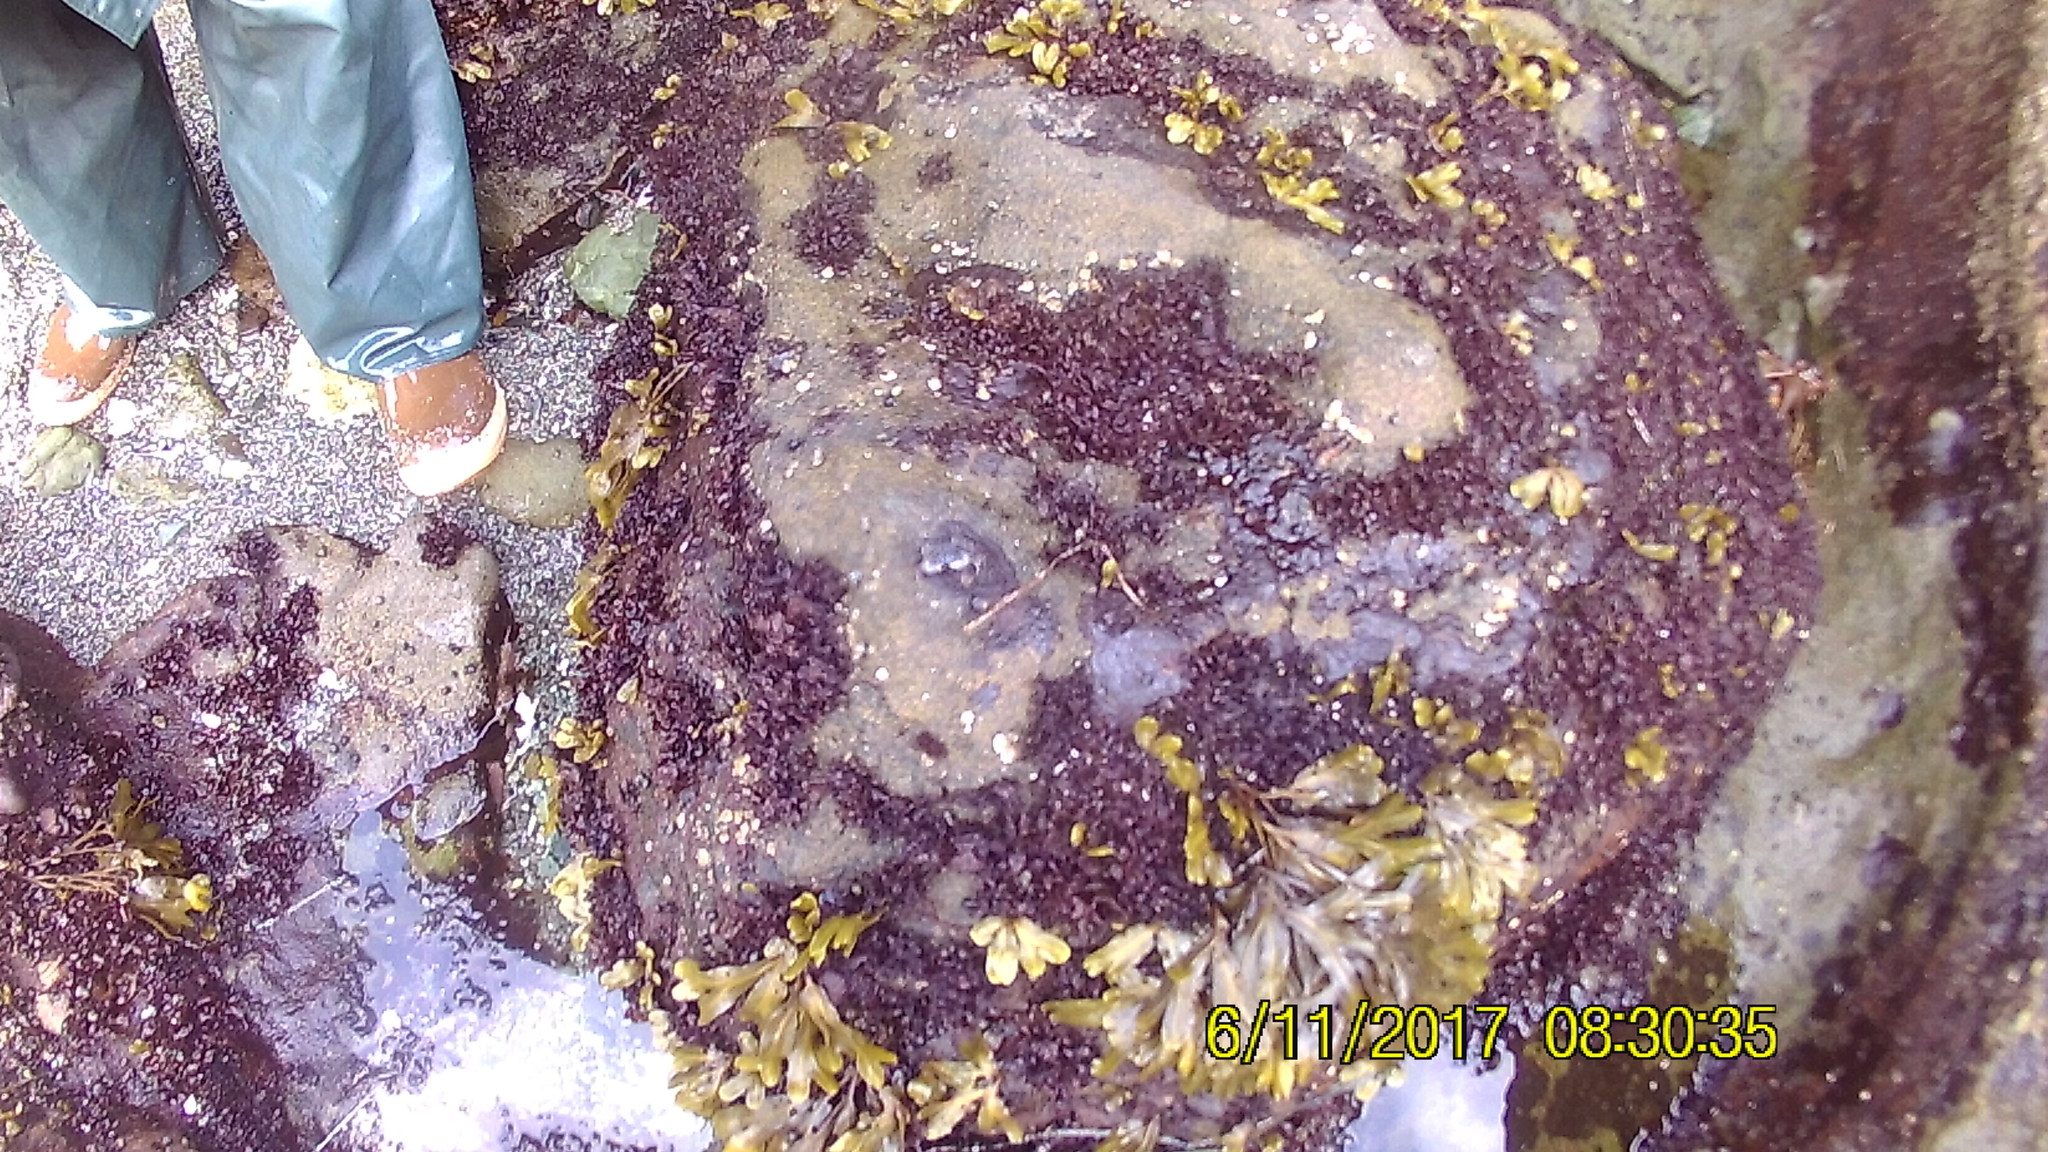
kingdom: Chromista
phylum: Ochrophyta
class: Phaeophyceae
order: Fucales
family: Fucaceae
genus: Fucus
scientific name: Fucus distichus
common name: Rockweed
